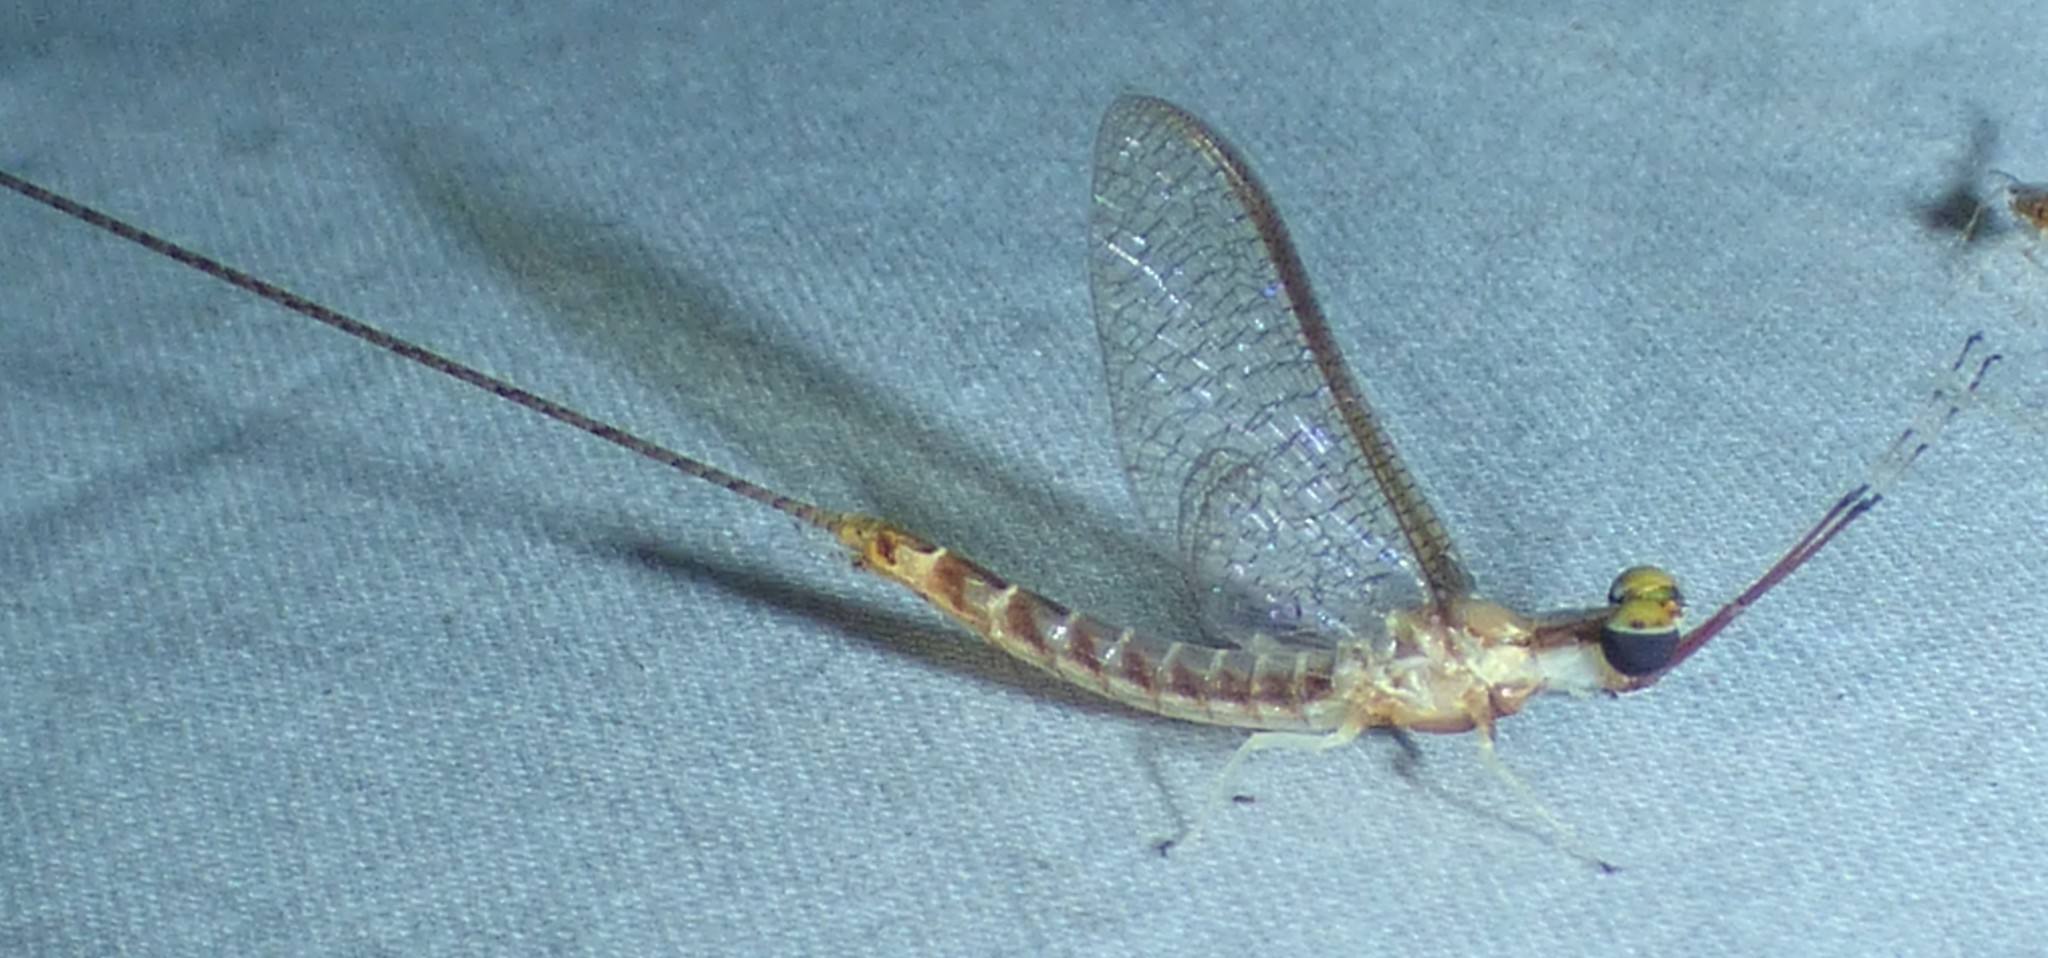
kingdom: Animalia
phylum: Arthropoda
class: Insecta
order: Ephemeroptera
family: Ephemeridae
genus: Hexagenia
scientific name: Hexagenia limbata
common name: Giant mayfly
